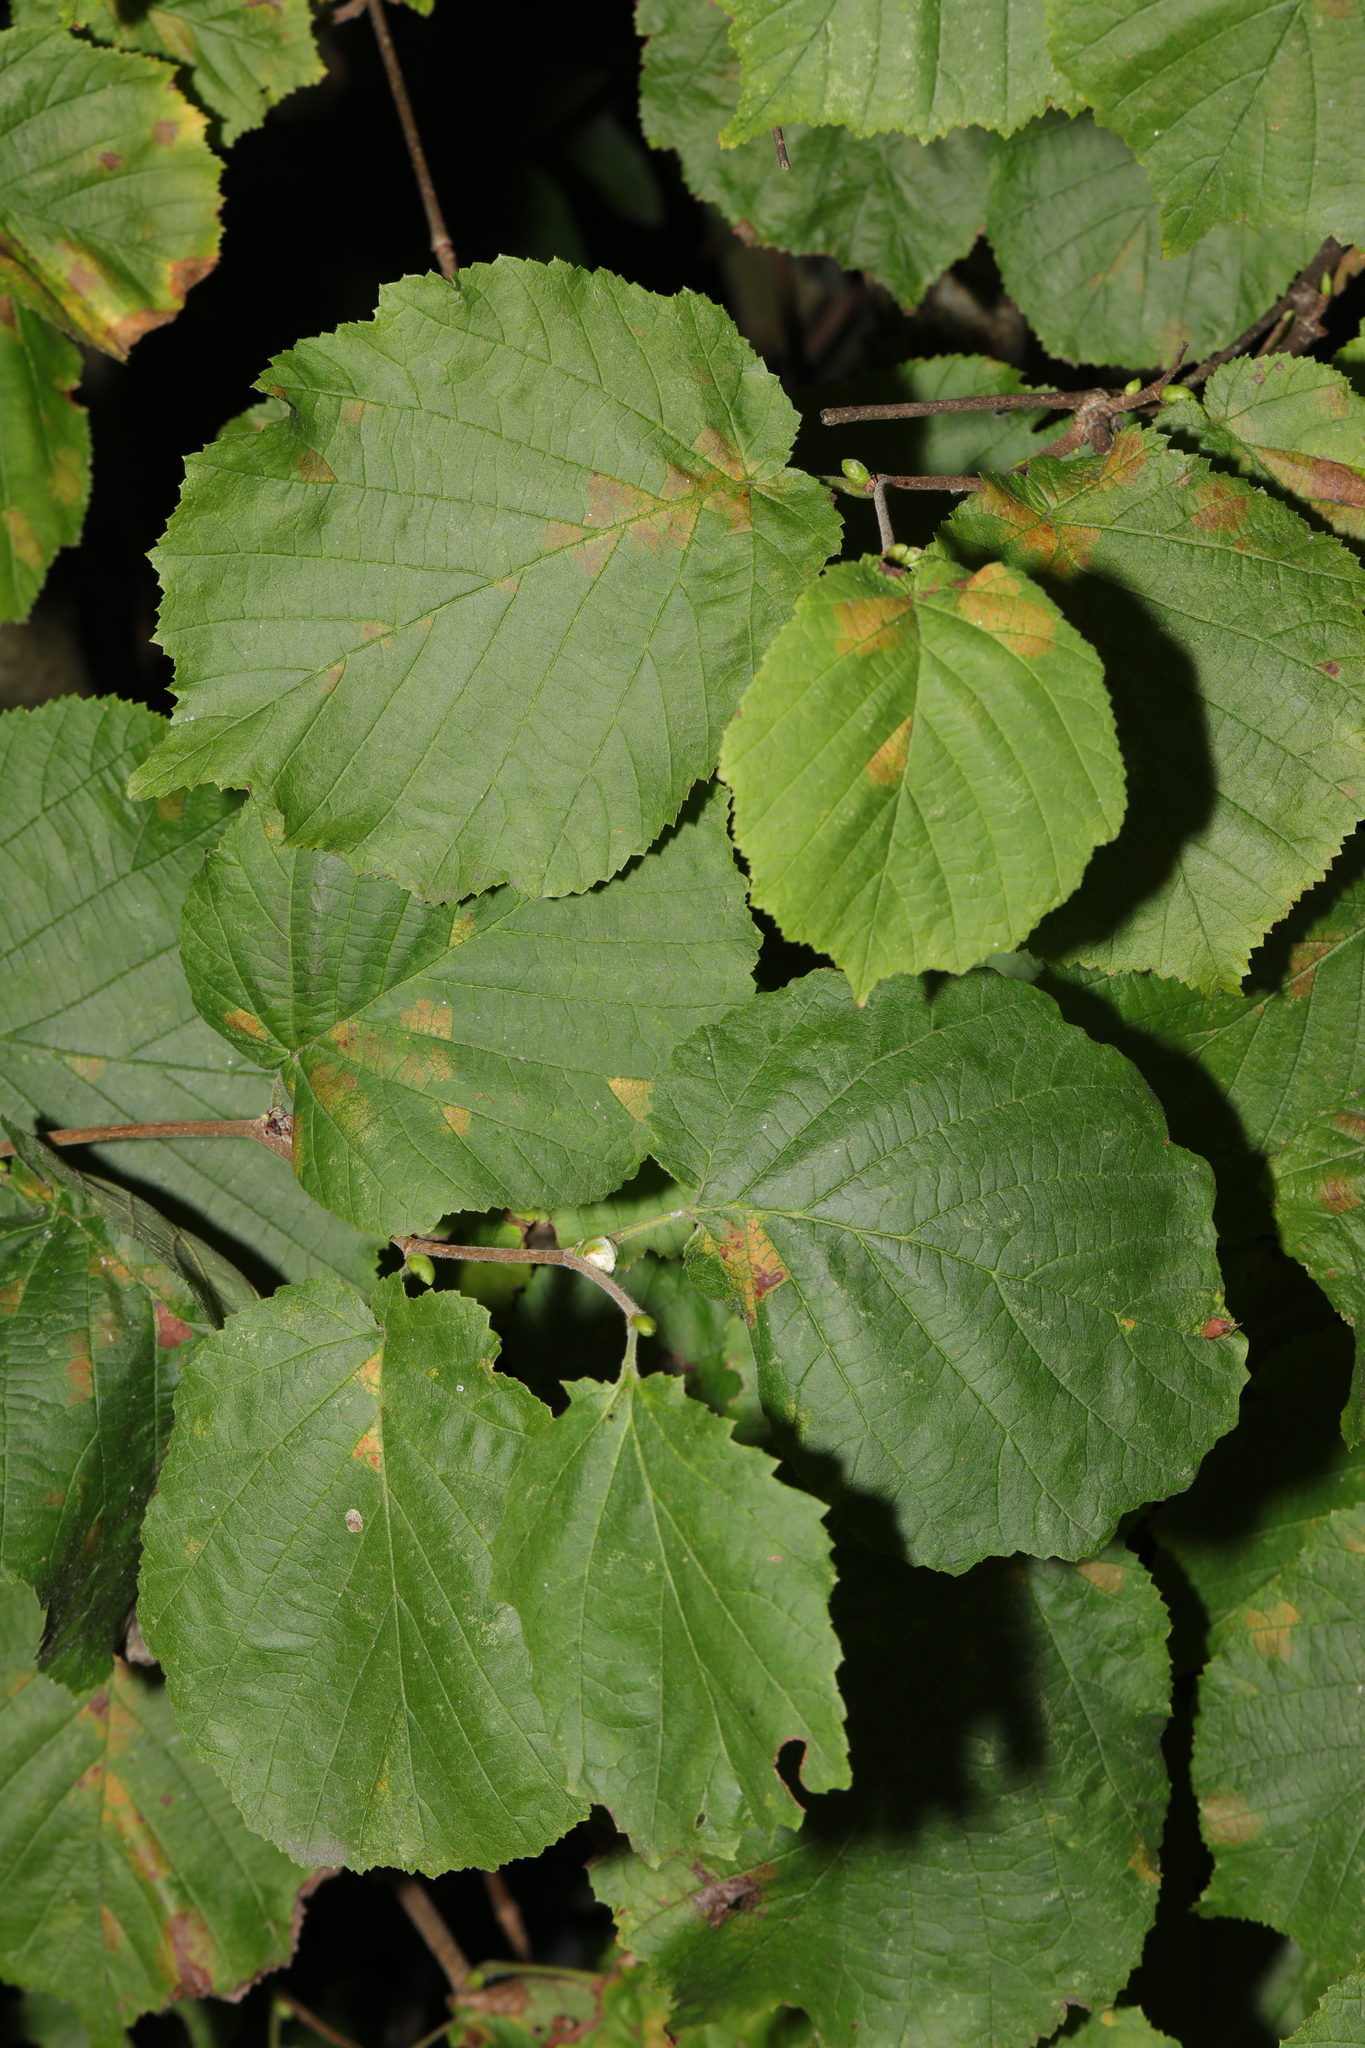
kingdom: Plantae
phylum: Tracheophyta
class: Magnoliopsida
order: Fagales
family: Betulaceae
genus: Corylus
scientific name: Corylus avellana
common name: European hazel
